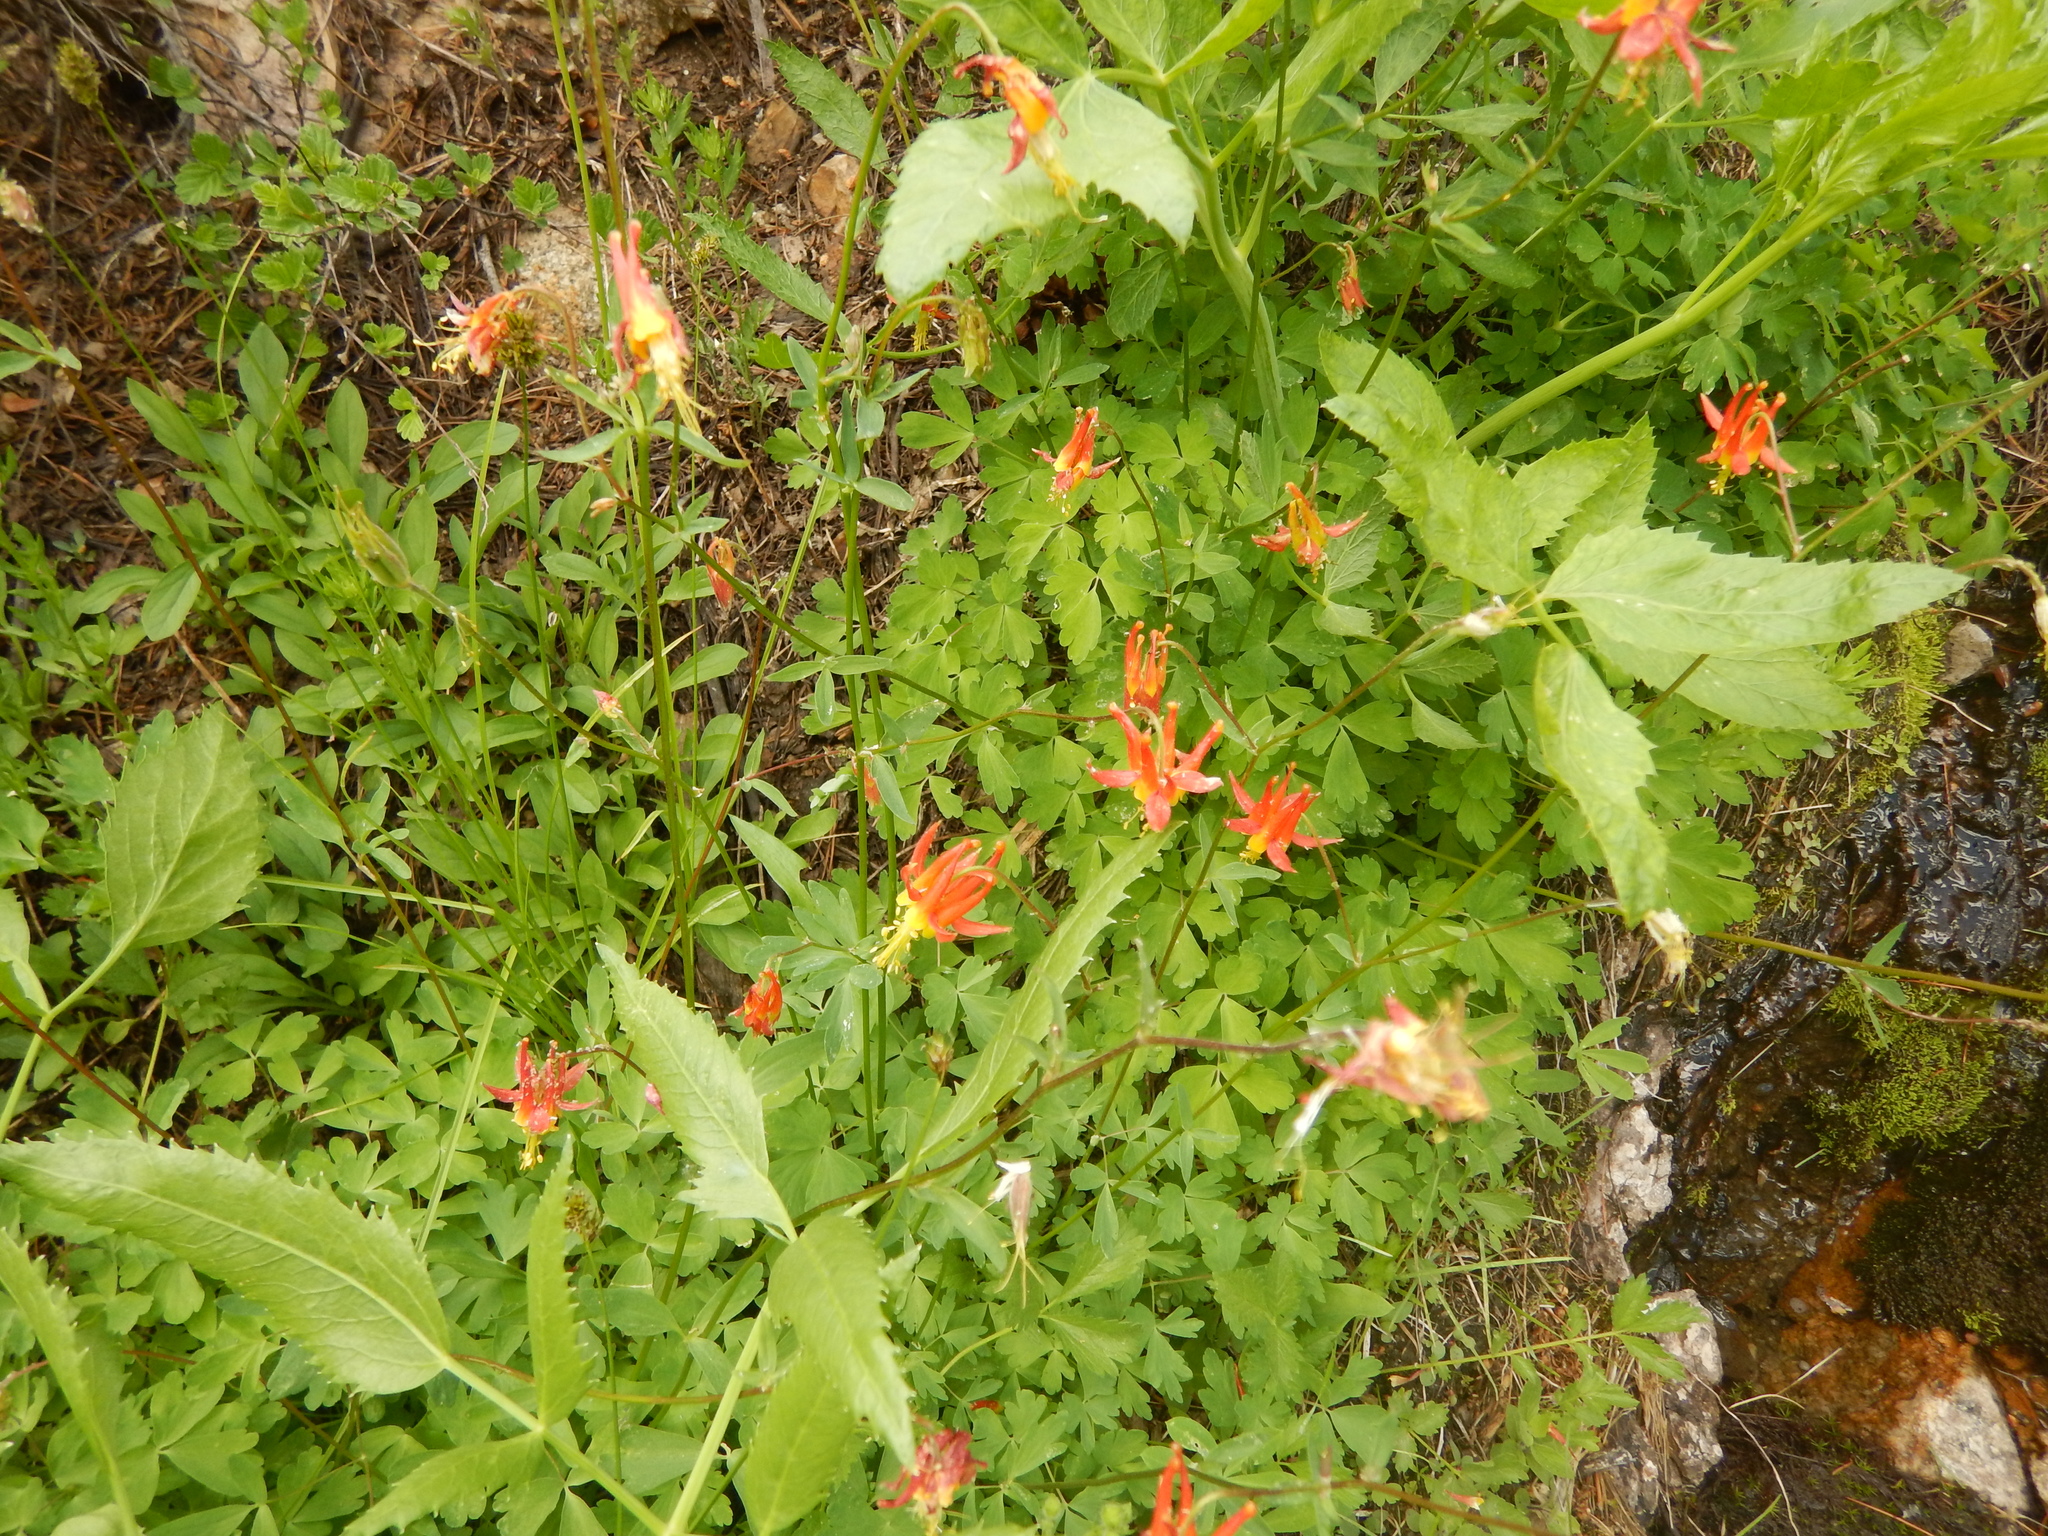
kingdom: Plantae
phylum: Tracheophyta
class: Magnoliopsida
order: Ranunculales
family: Ranunculaceae
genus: Aquilegia
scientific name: Aquilegia formosa
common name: Sitka columbine
